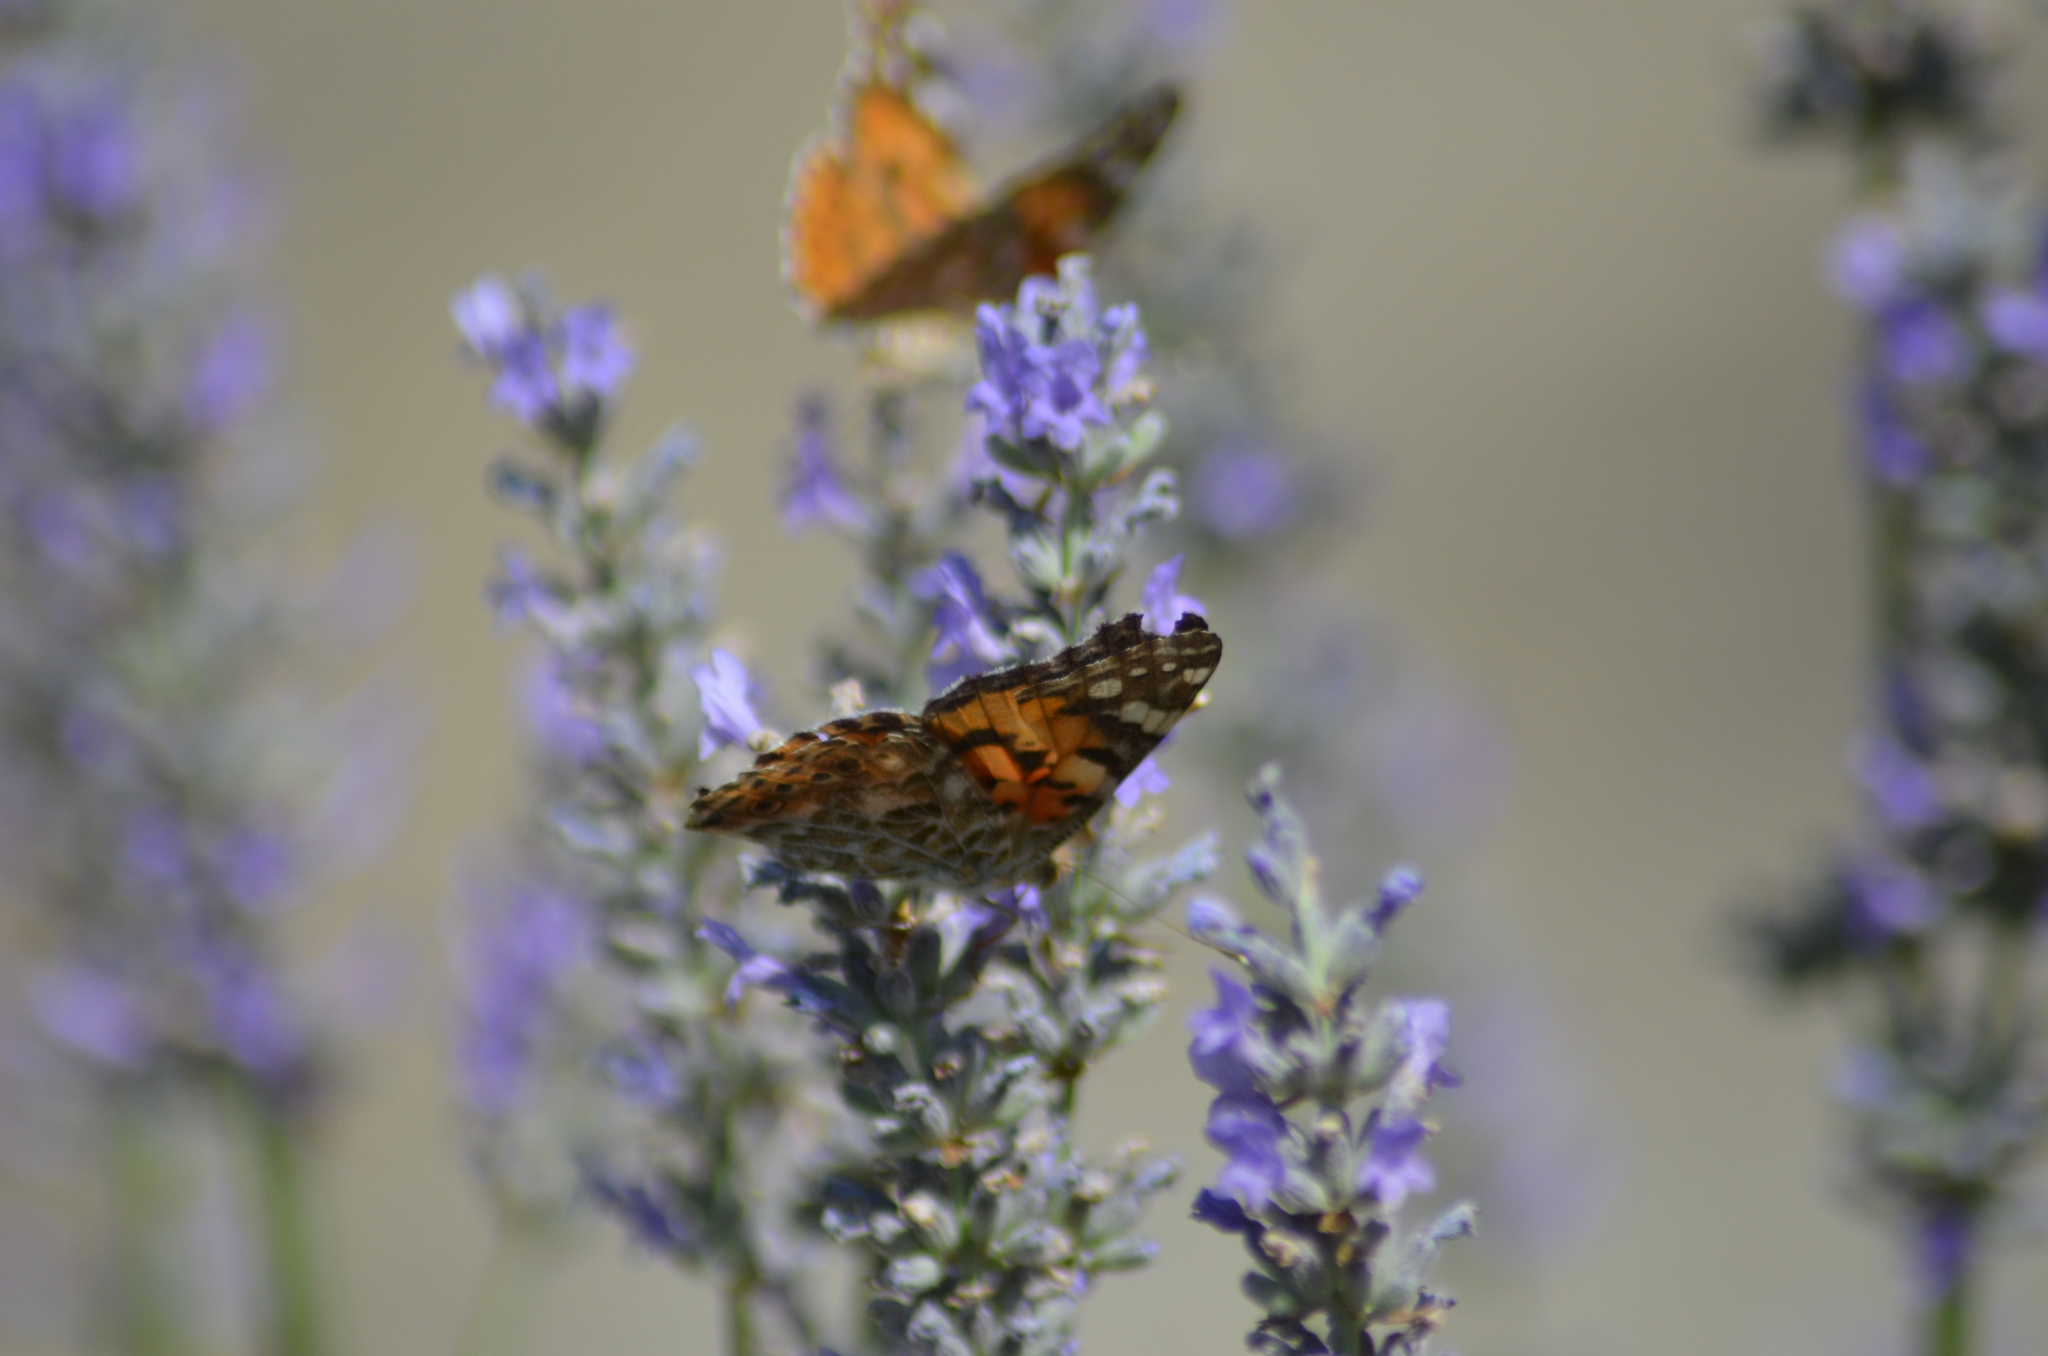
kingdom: Animalia
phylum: Arthropoda
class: Insecta
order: Lepidoptera
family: Nymphalidae
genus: Vanessa
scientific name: Vanessa cardui
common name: Painted lady
